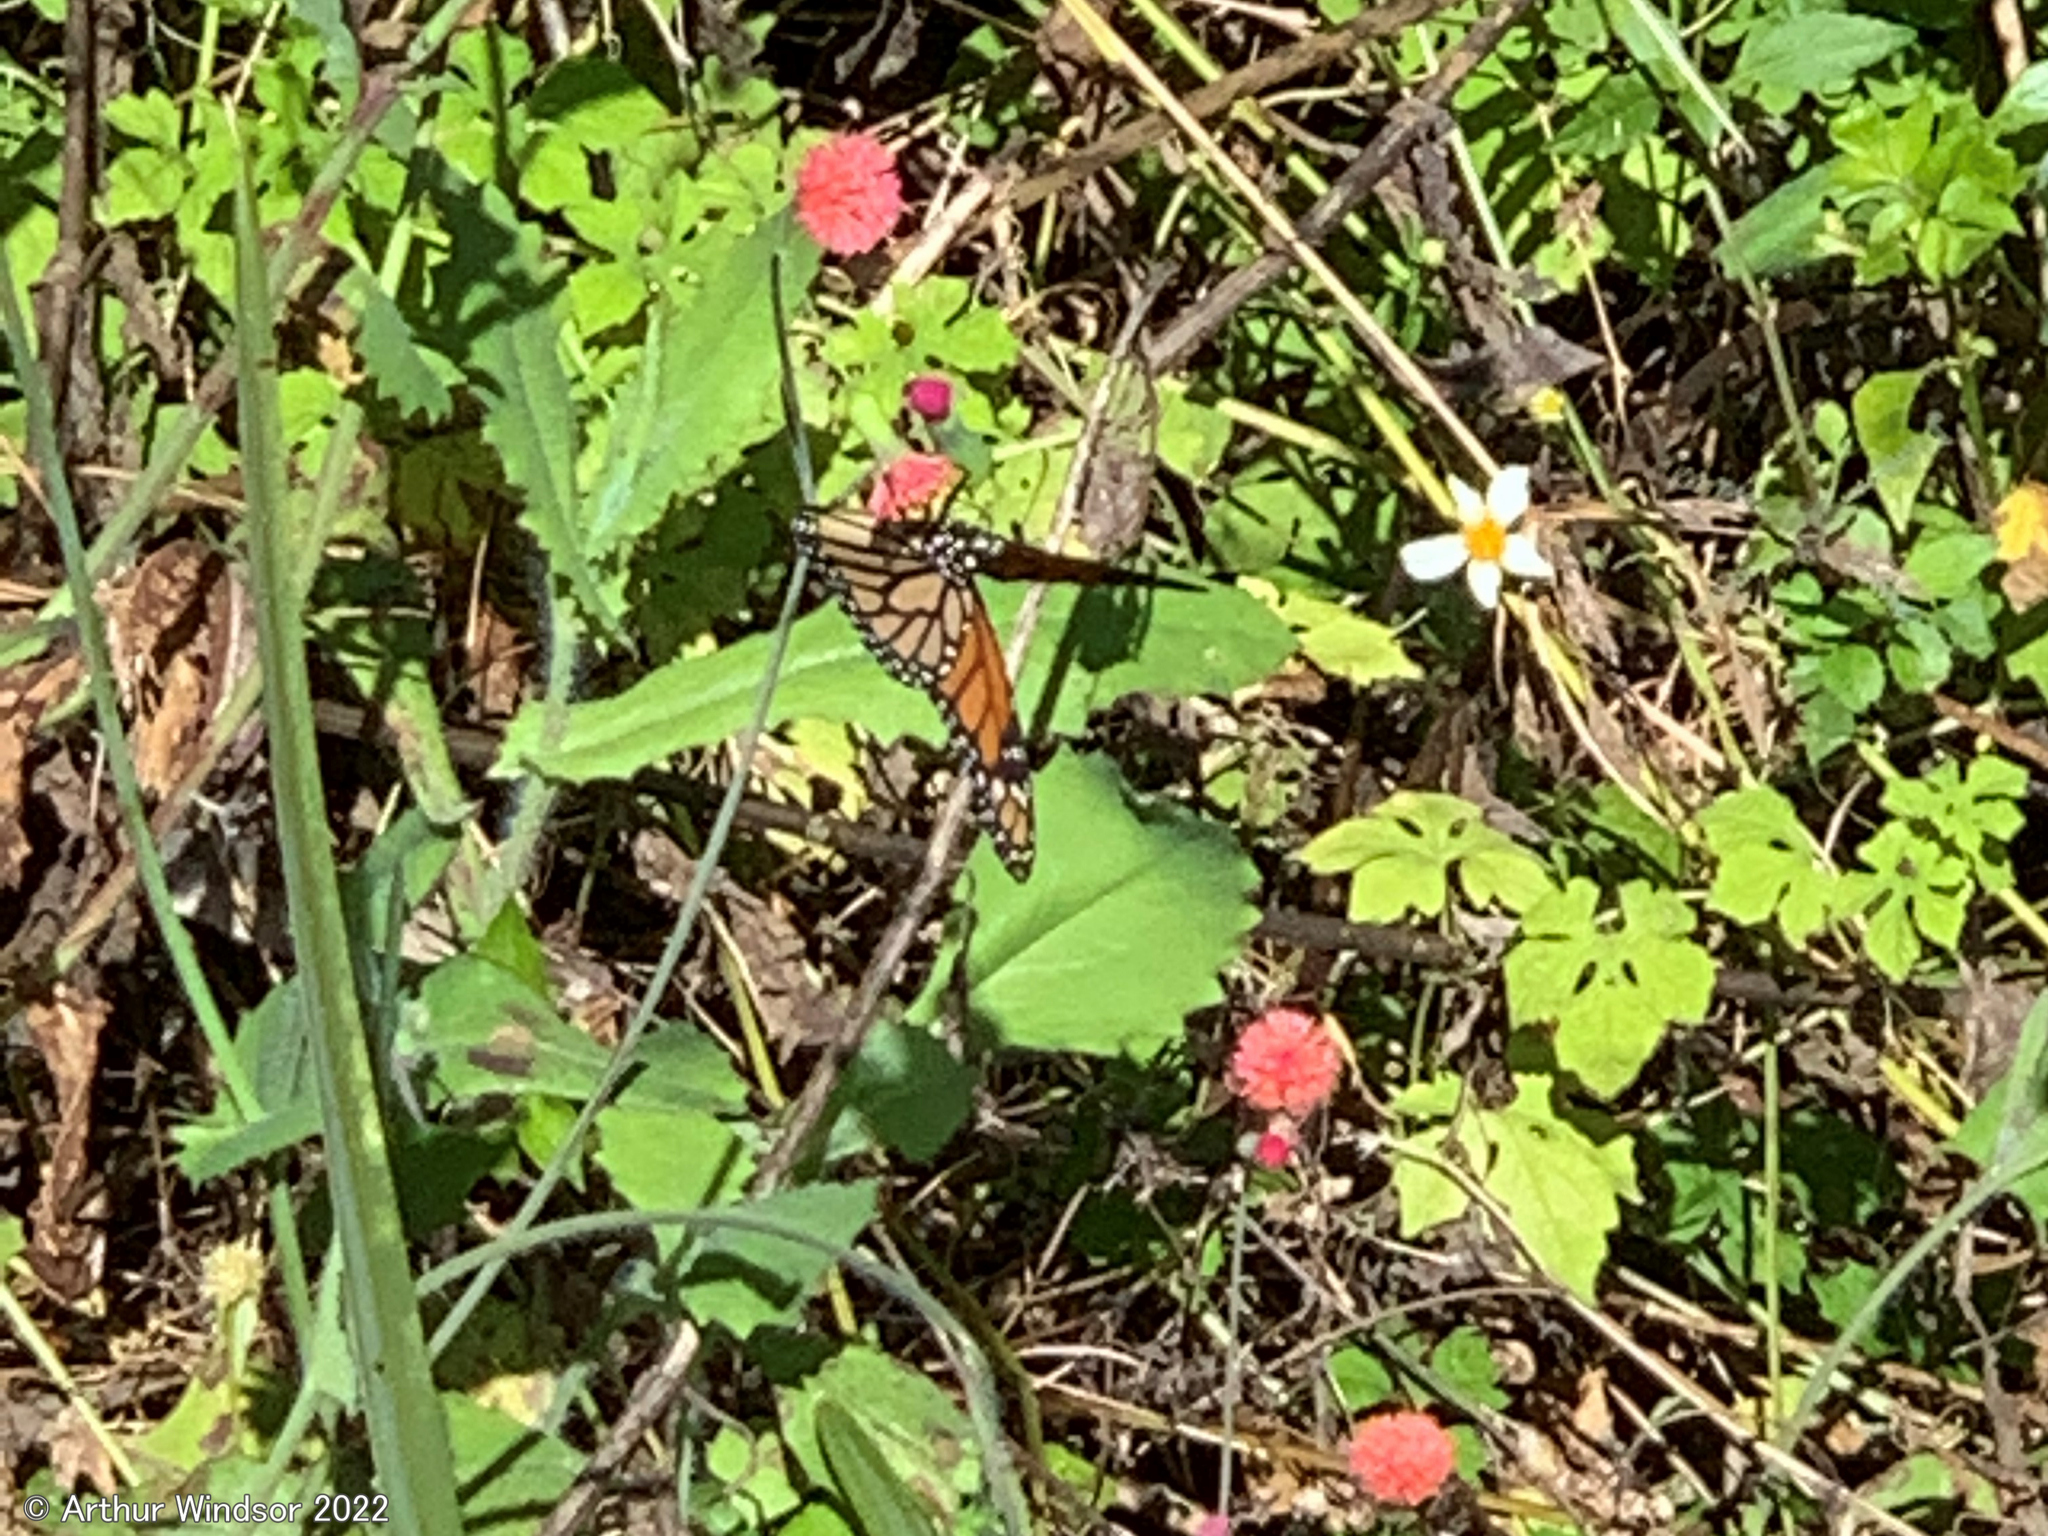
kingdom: Animalia
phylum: Arthropoda
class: Insecta
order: Lepidoptera
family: Nymphalidae
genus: Danaus
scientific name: Danaus plexippus
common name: Monarch
